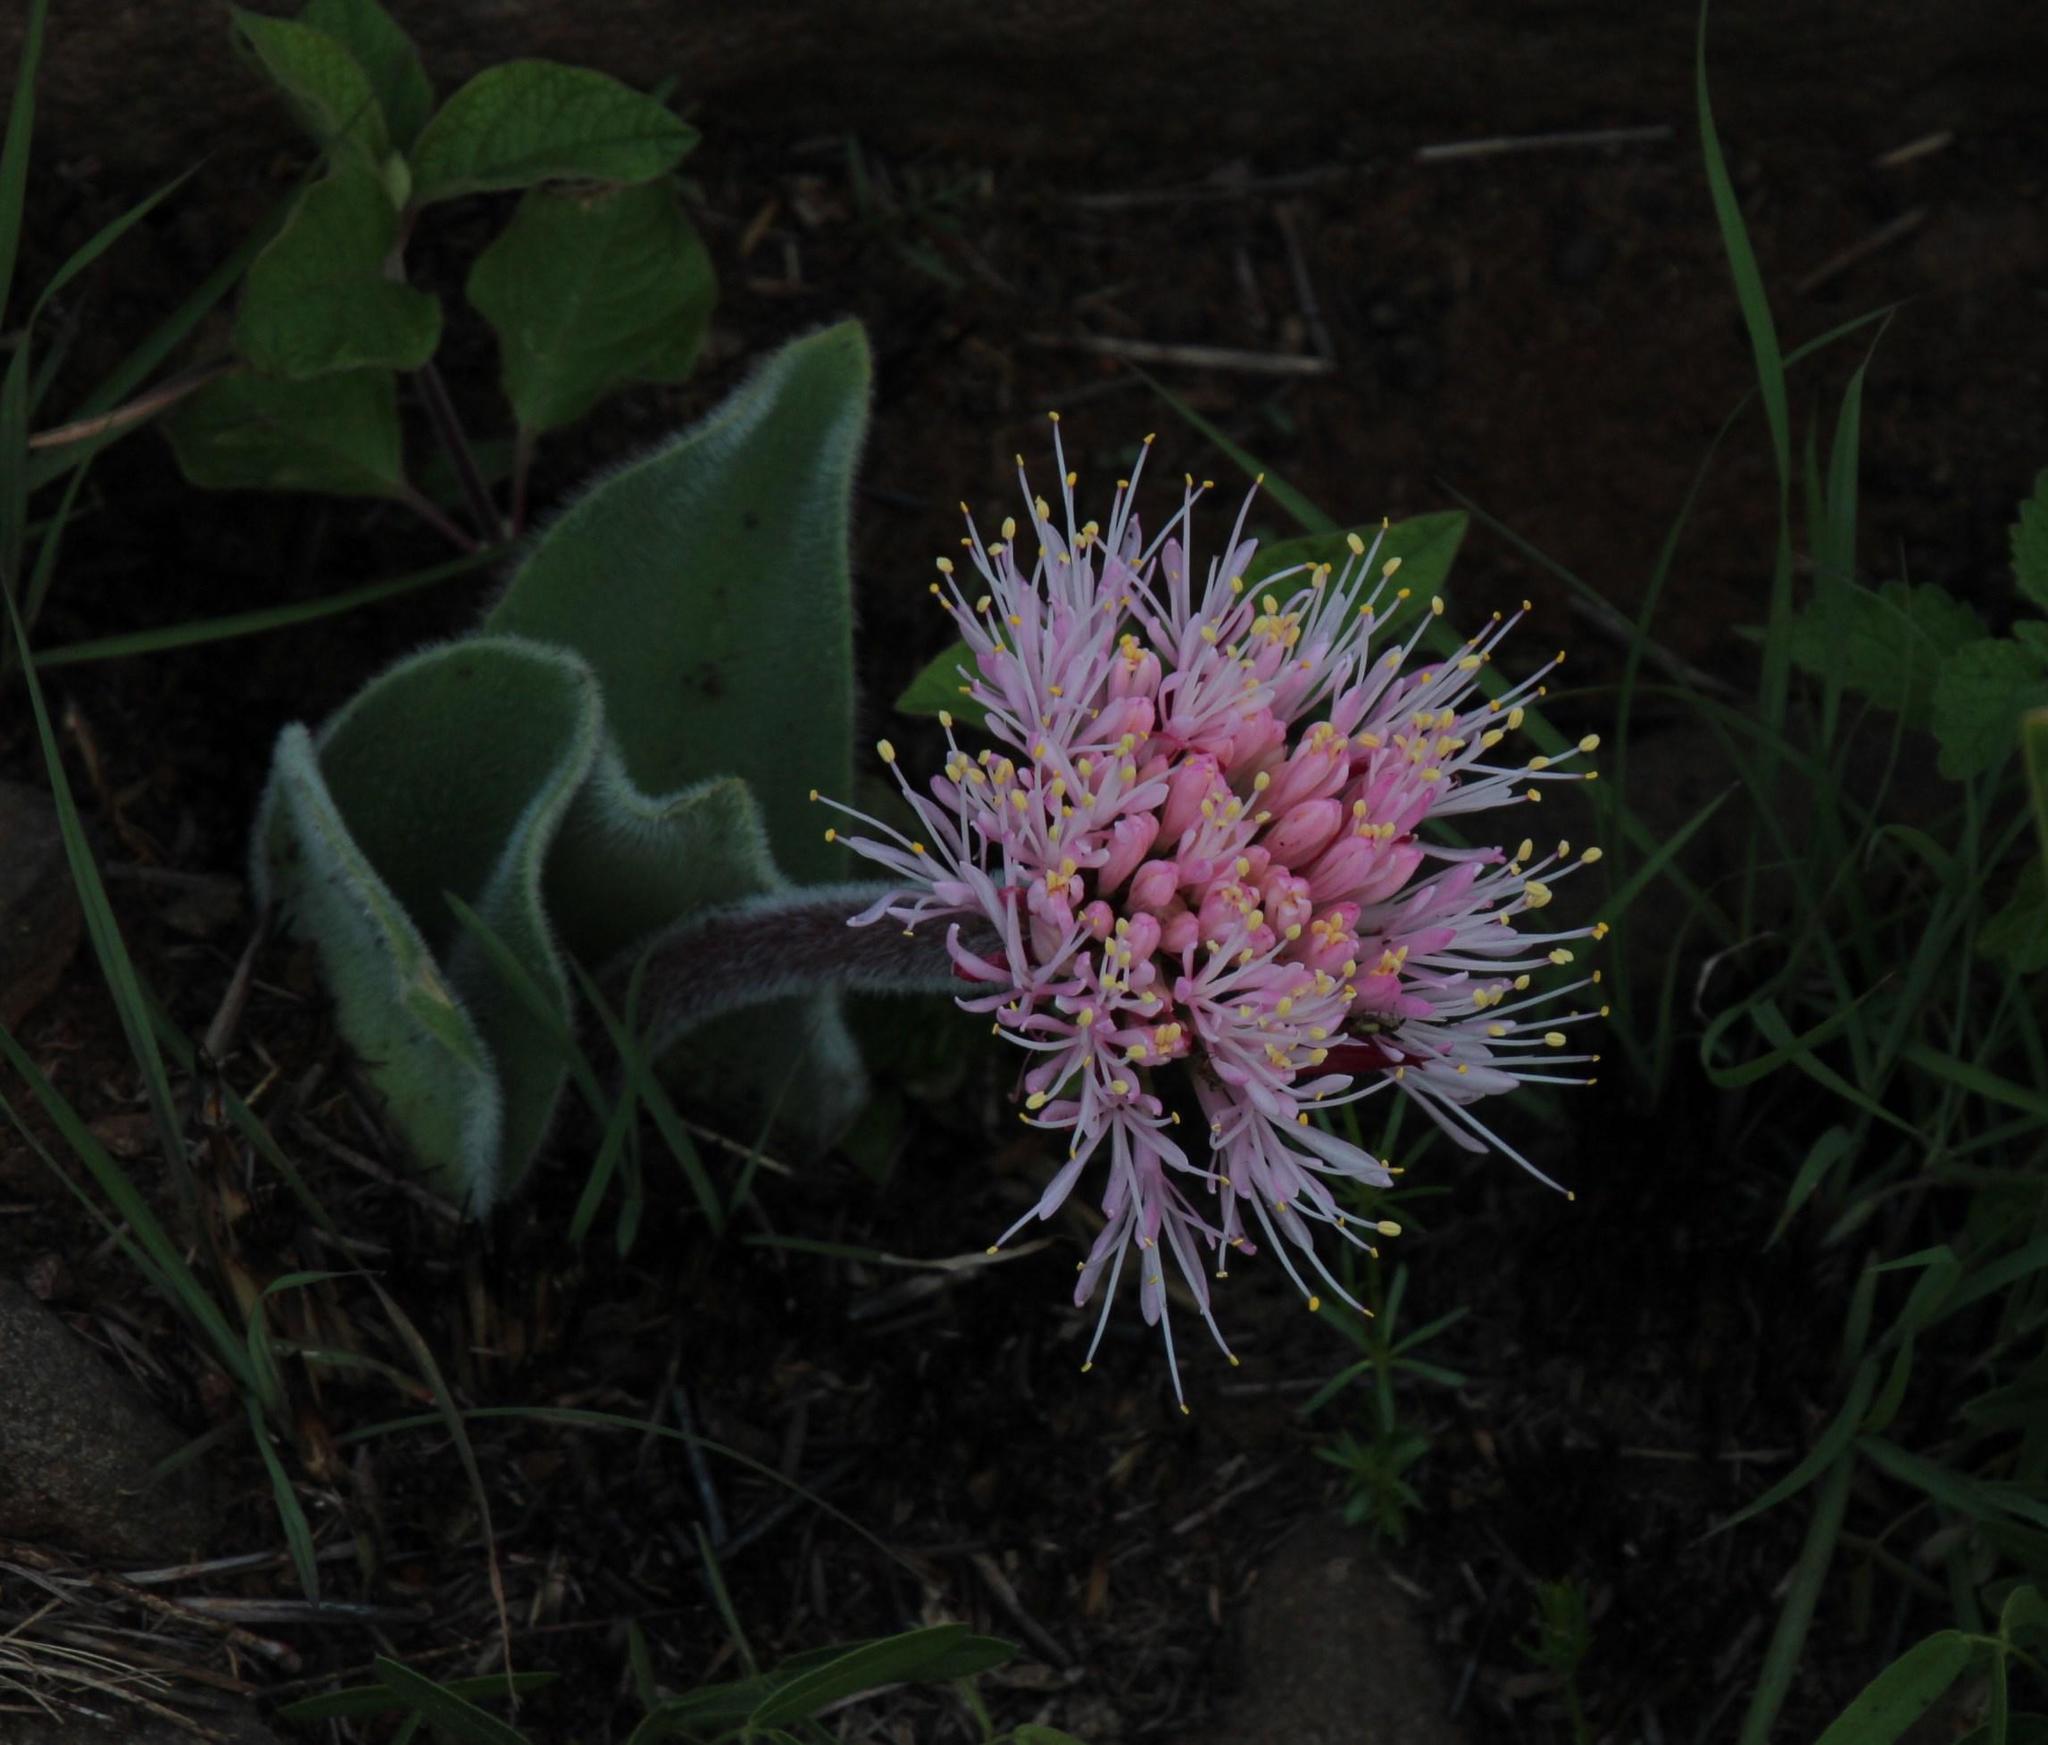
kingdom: Plantae
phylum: Tracheophyta
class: Liliopsida
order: Asparagales
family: Amaryllidaceae
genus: Haemanthus
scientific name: Haemanthus humilis
